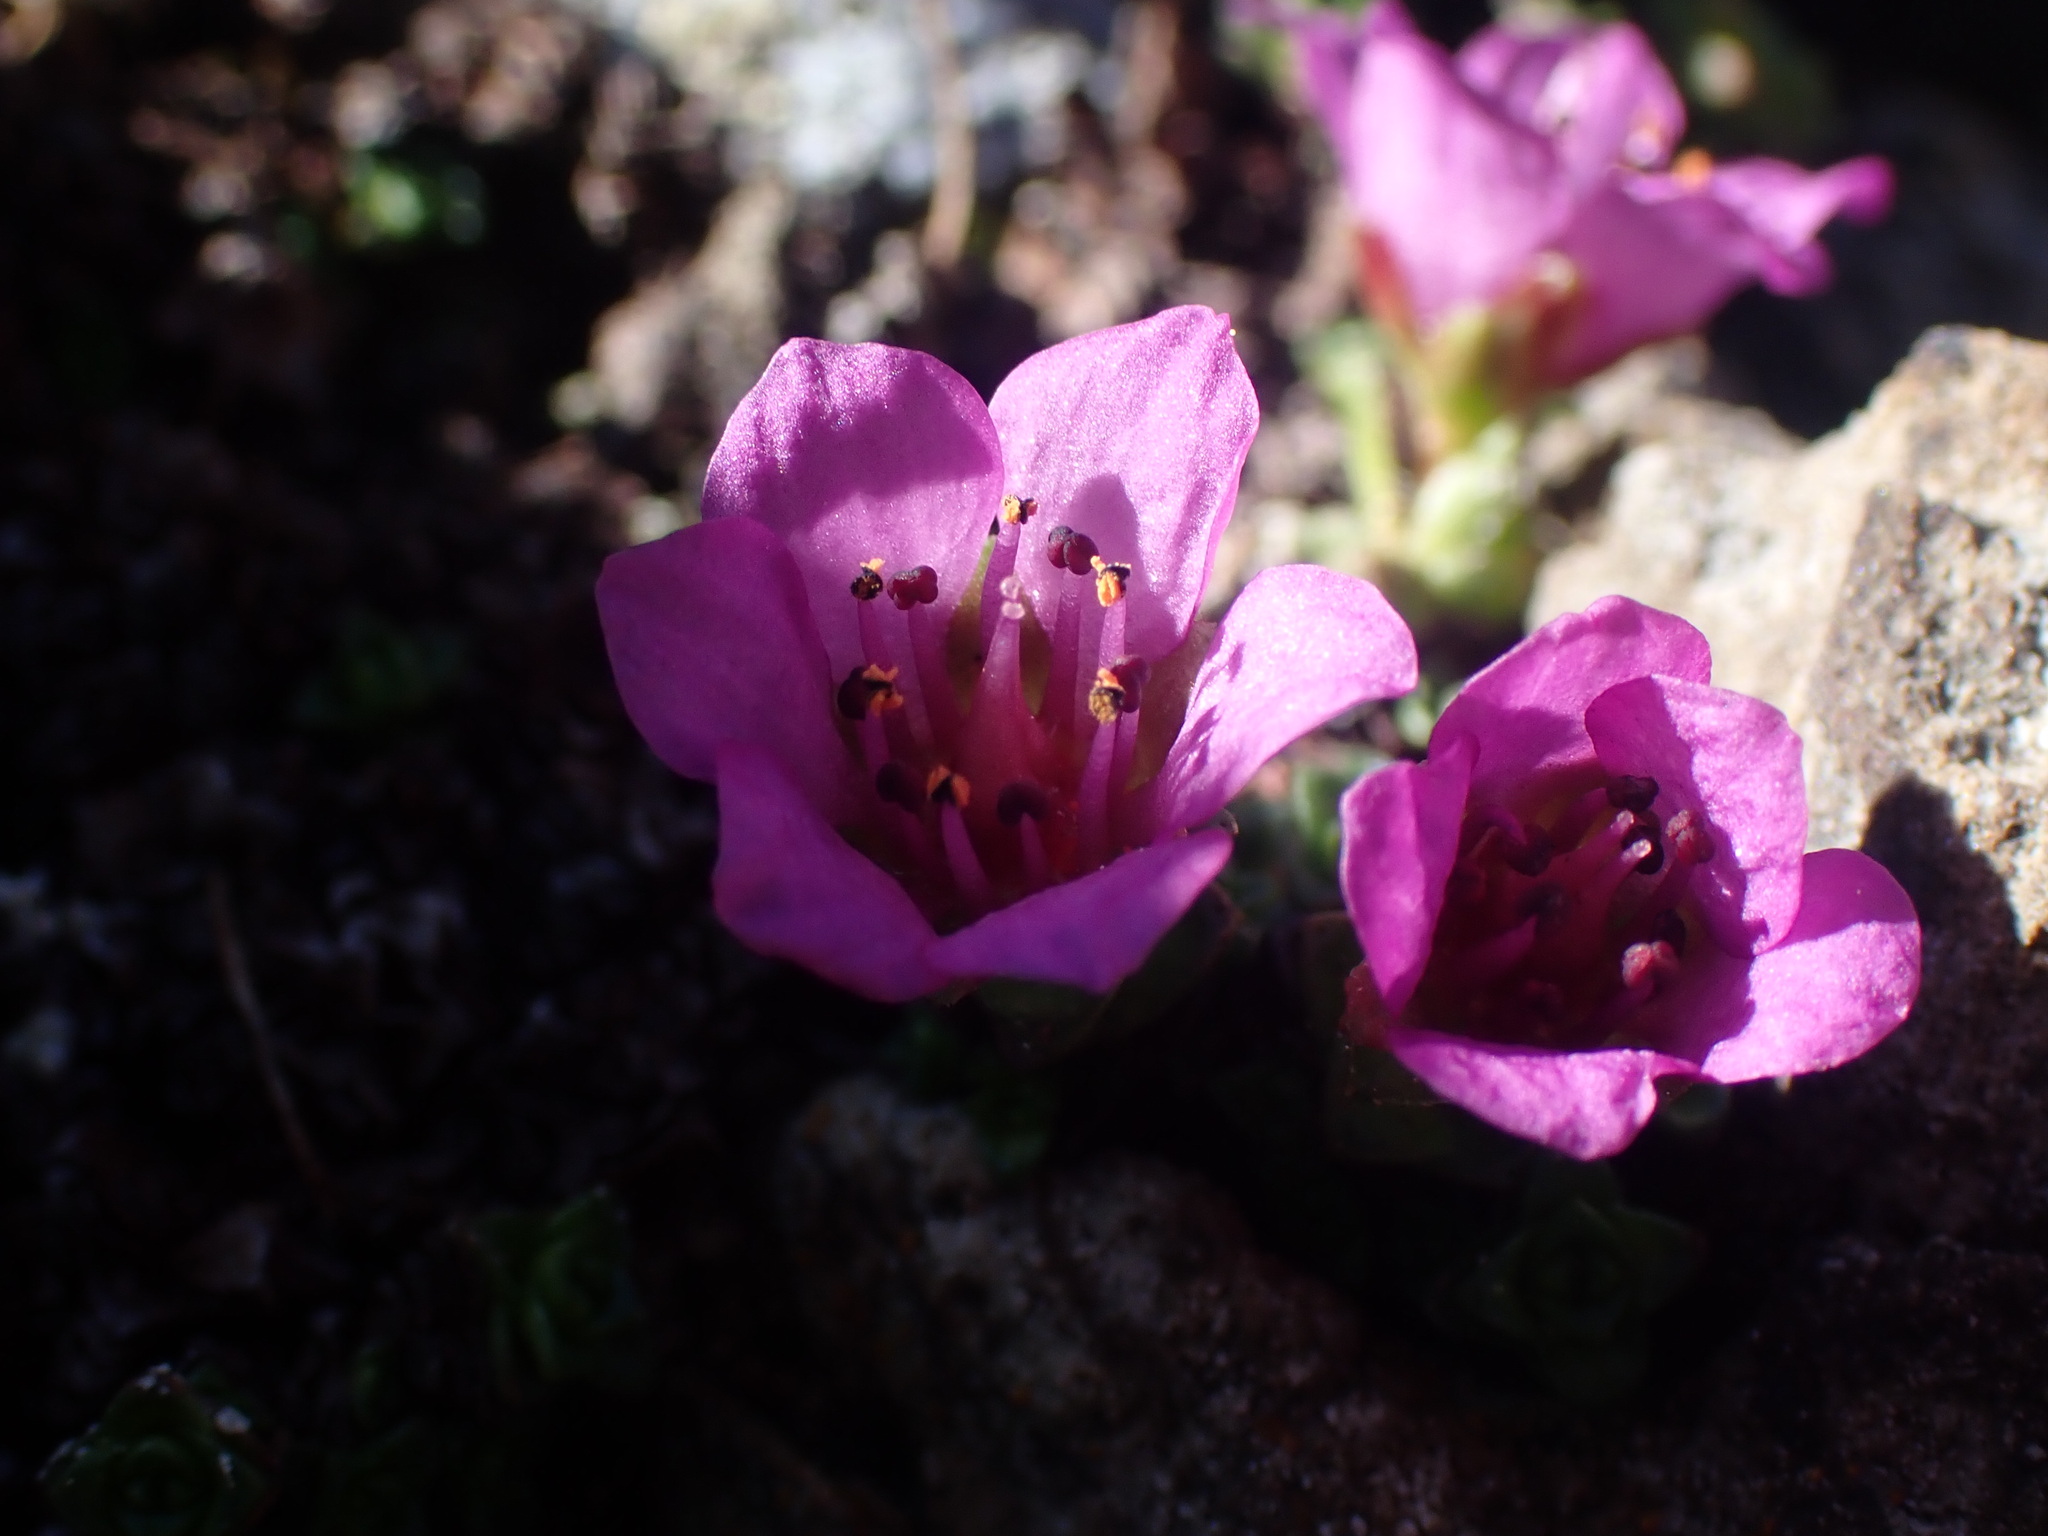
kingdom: Plantae
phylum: Tracheophyta
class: Magnoliopsida
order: Saxifragales
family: Saxifragaceae
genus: Saxifraga
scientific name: Saxifraga oppositifolia
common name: Purple saxifrage
